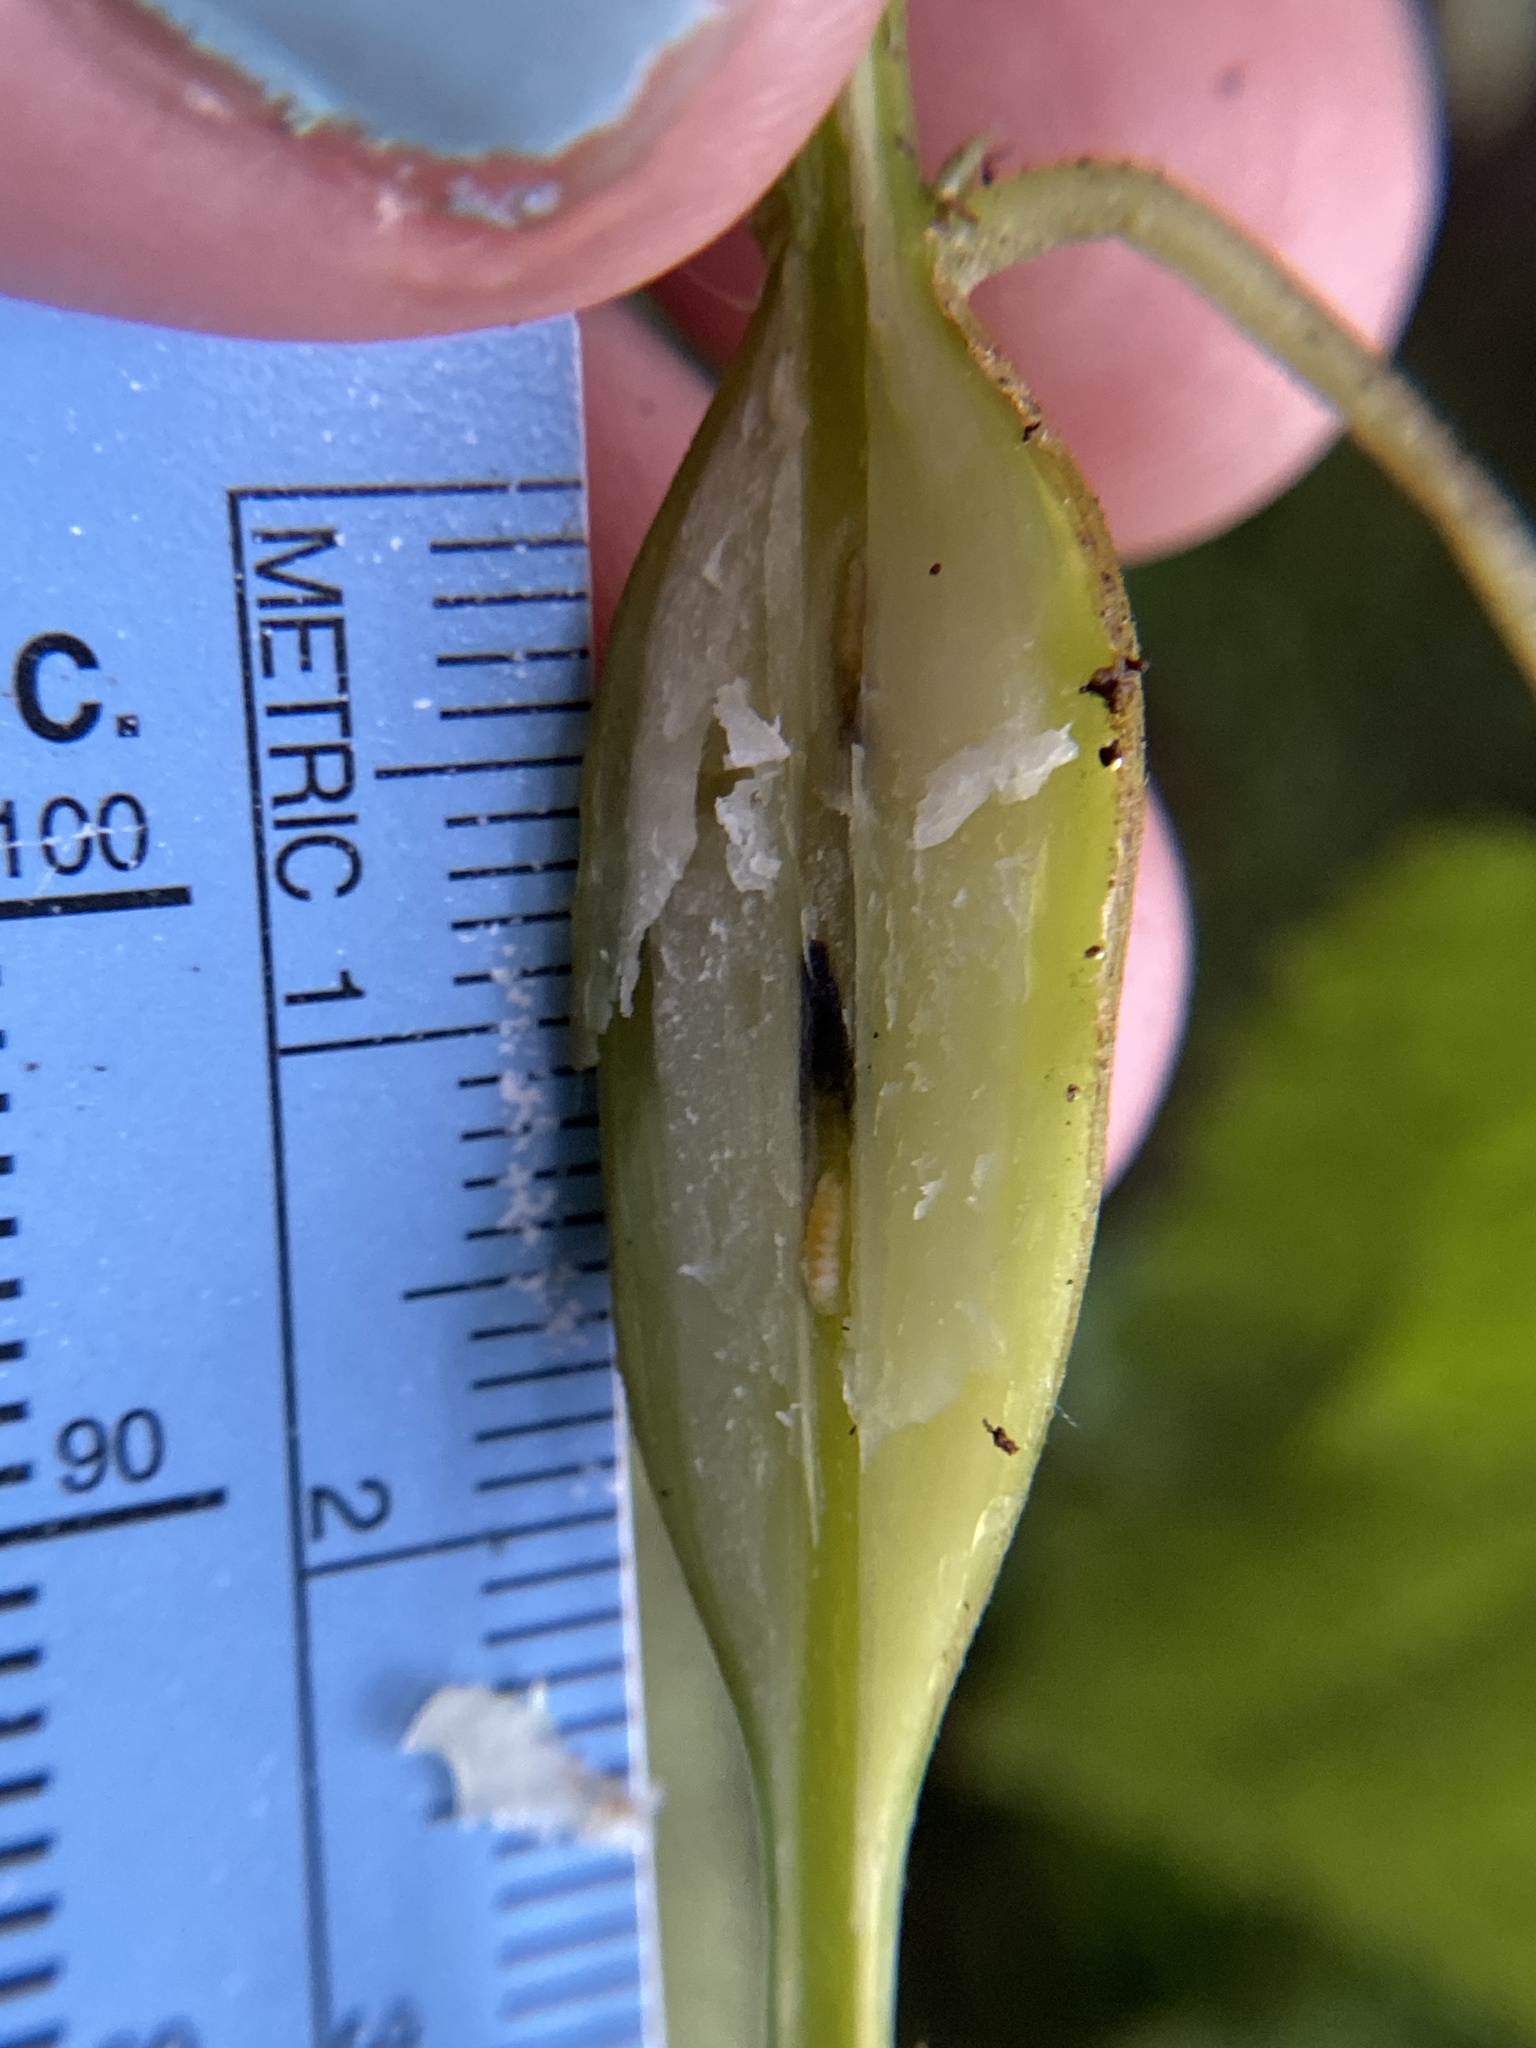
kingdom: Animalia
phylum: Arthropoda
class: Insecta
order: Diptera
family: Cecidomyiidae
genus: Neolasioptera
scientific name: Neolasioptera boehmeriae
